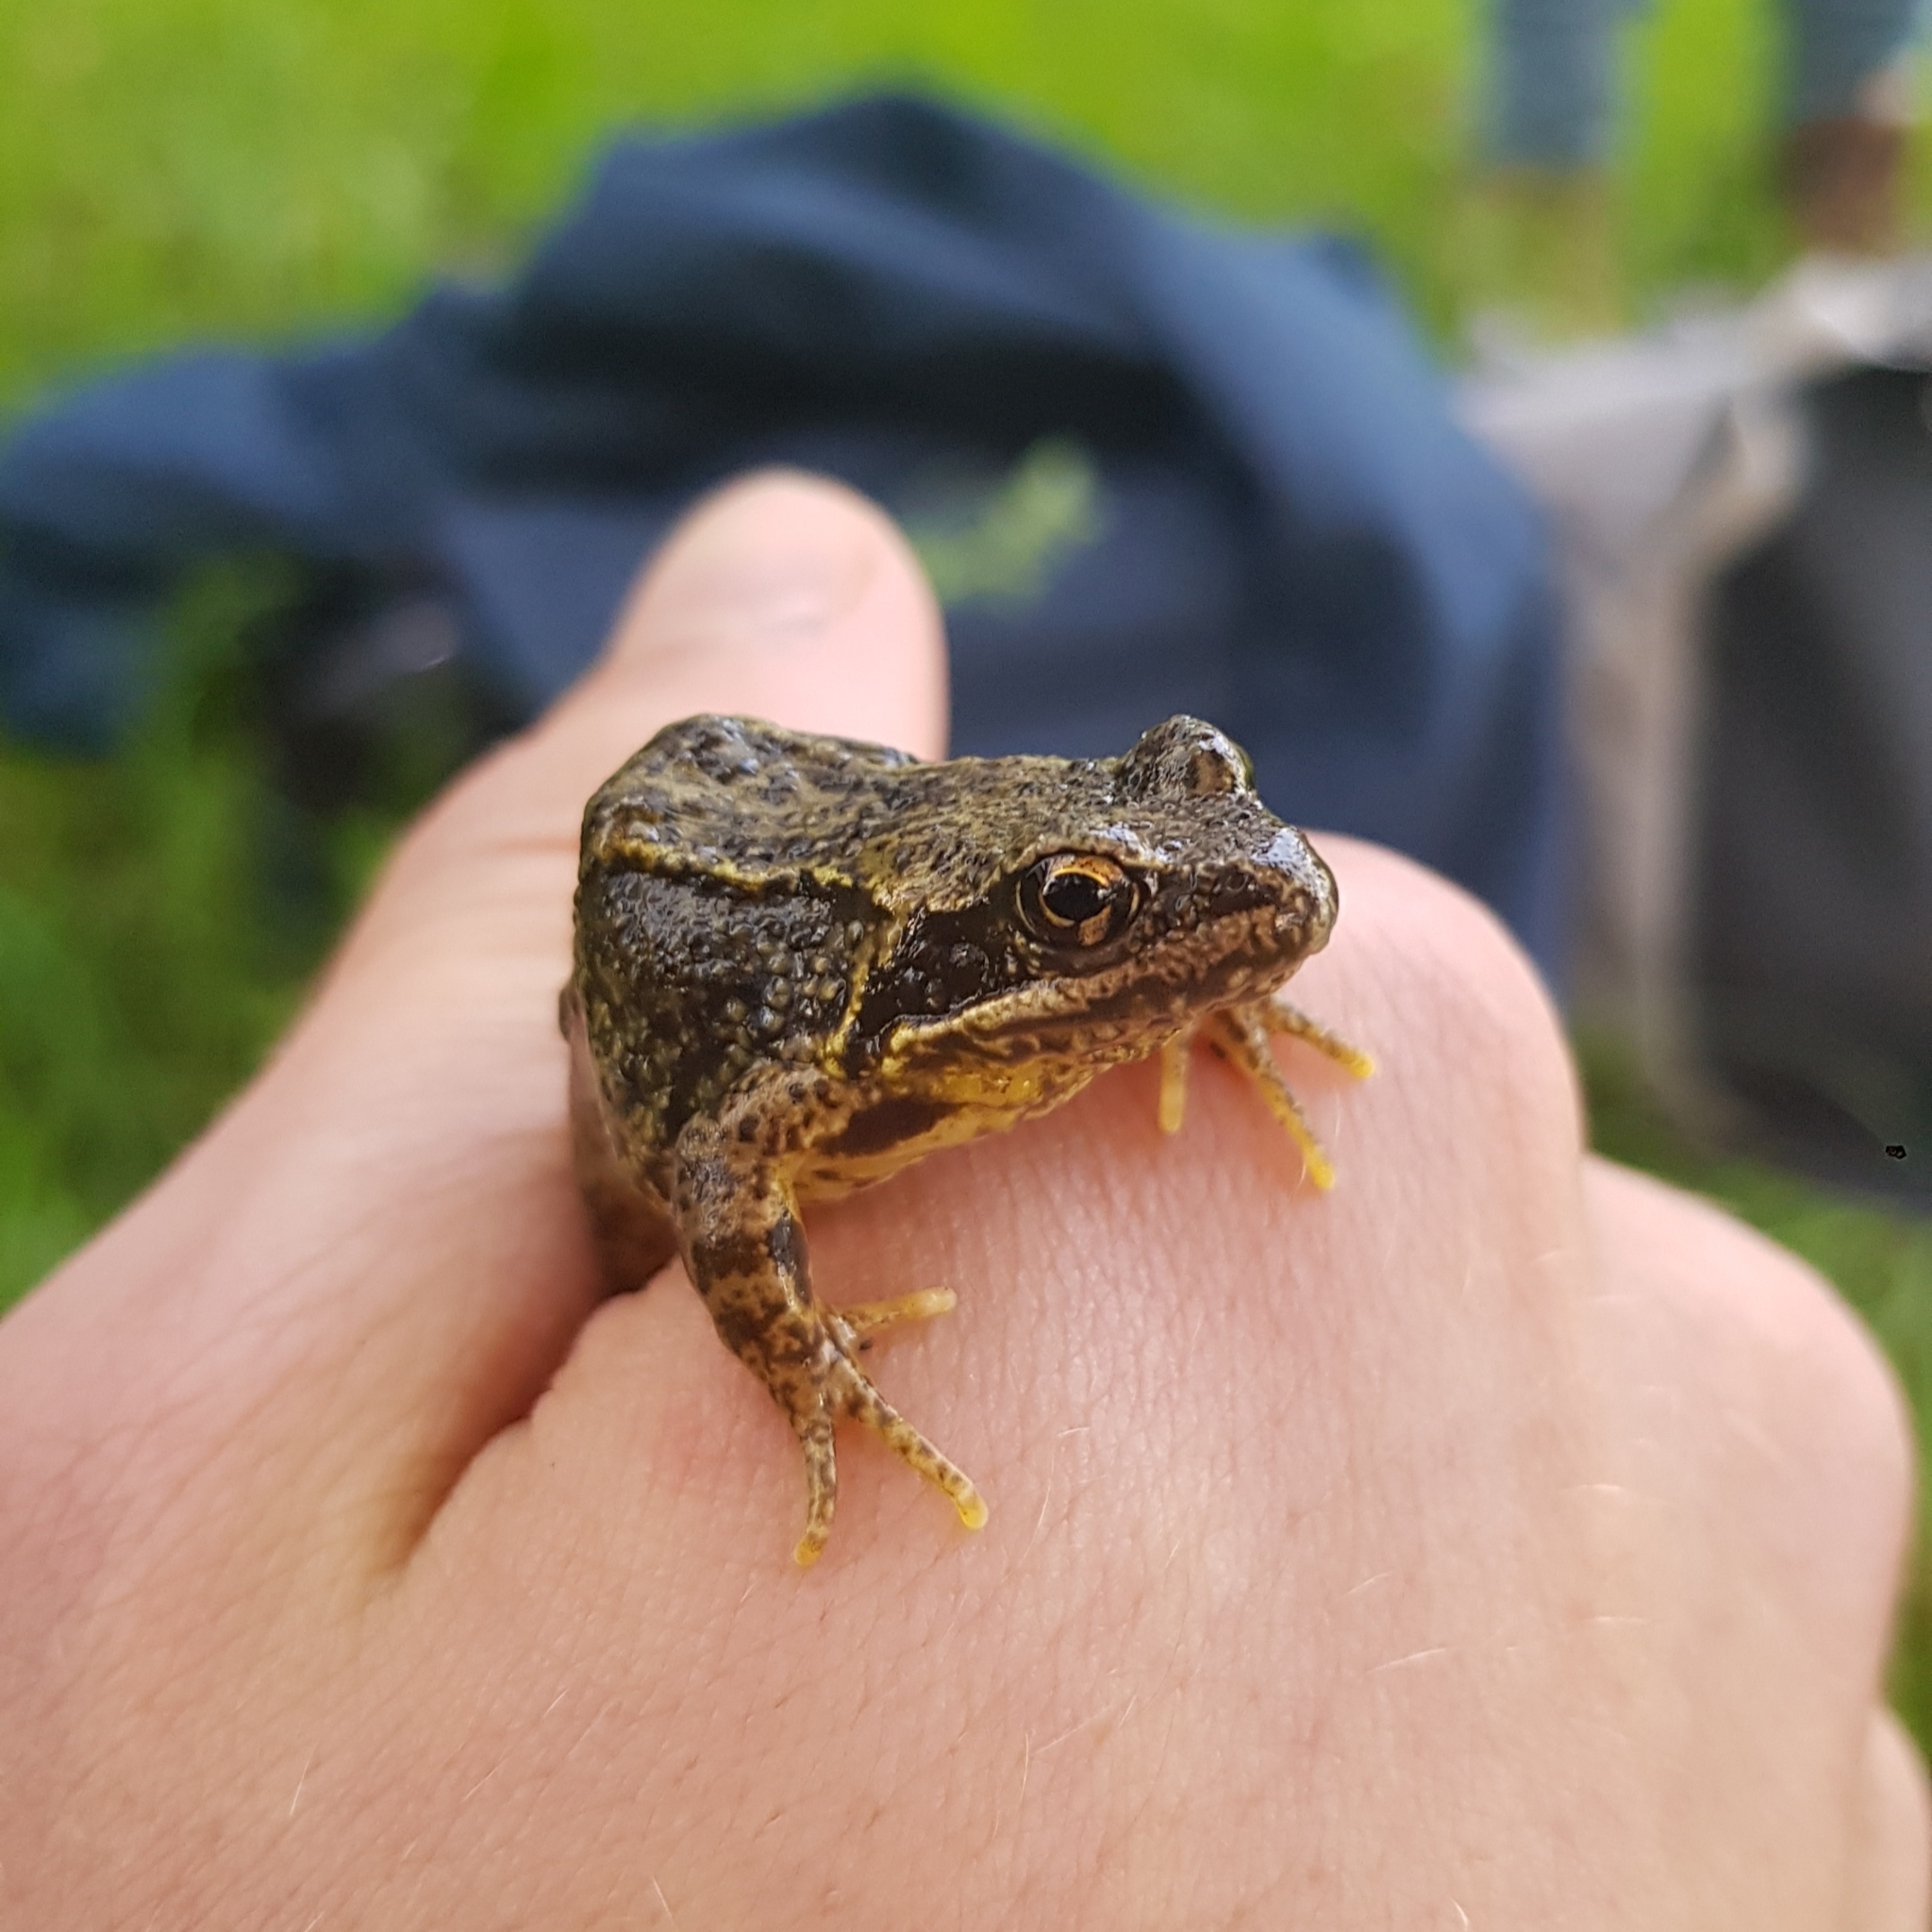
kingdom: Animalia
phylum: Chordata
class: Amphibia
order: Anura
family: Ranidae
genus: Rana
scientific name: Rana temporaria
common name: Common frog
